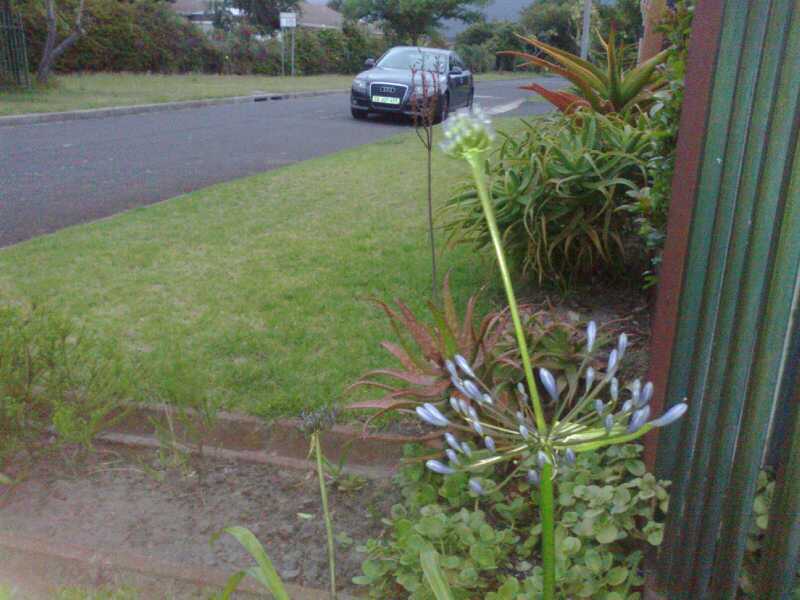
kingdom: Plantae
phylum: Tracheophyta
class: Liliopsida
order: Asparagales
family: Amaryllidaceae
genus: Agapanthus
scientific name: Agapanthus praecox
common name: African-lily
